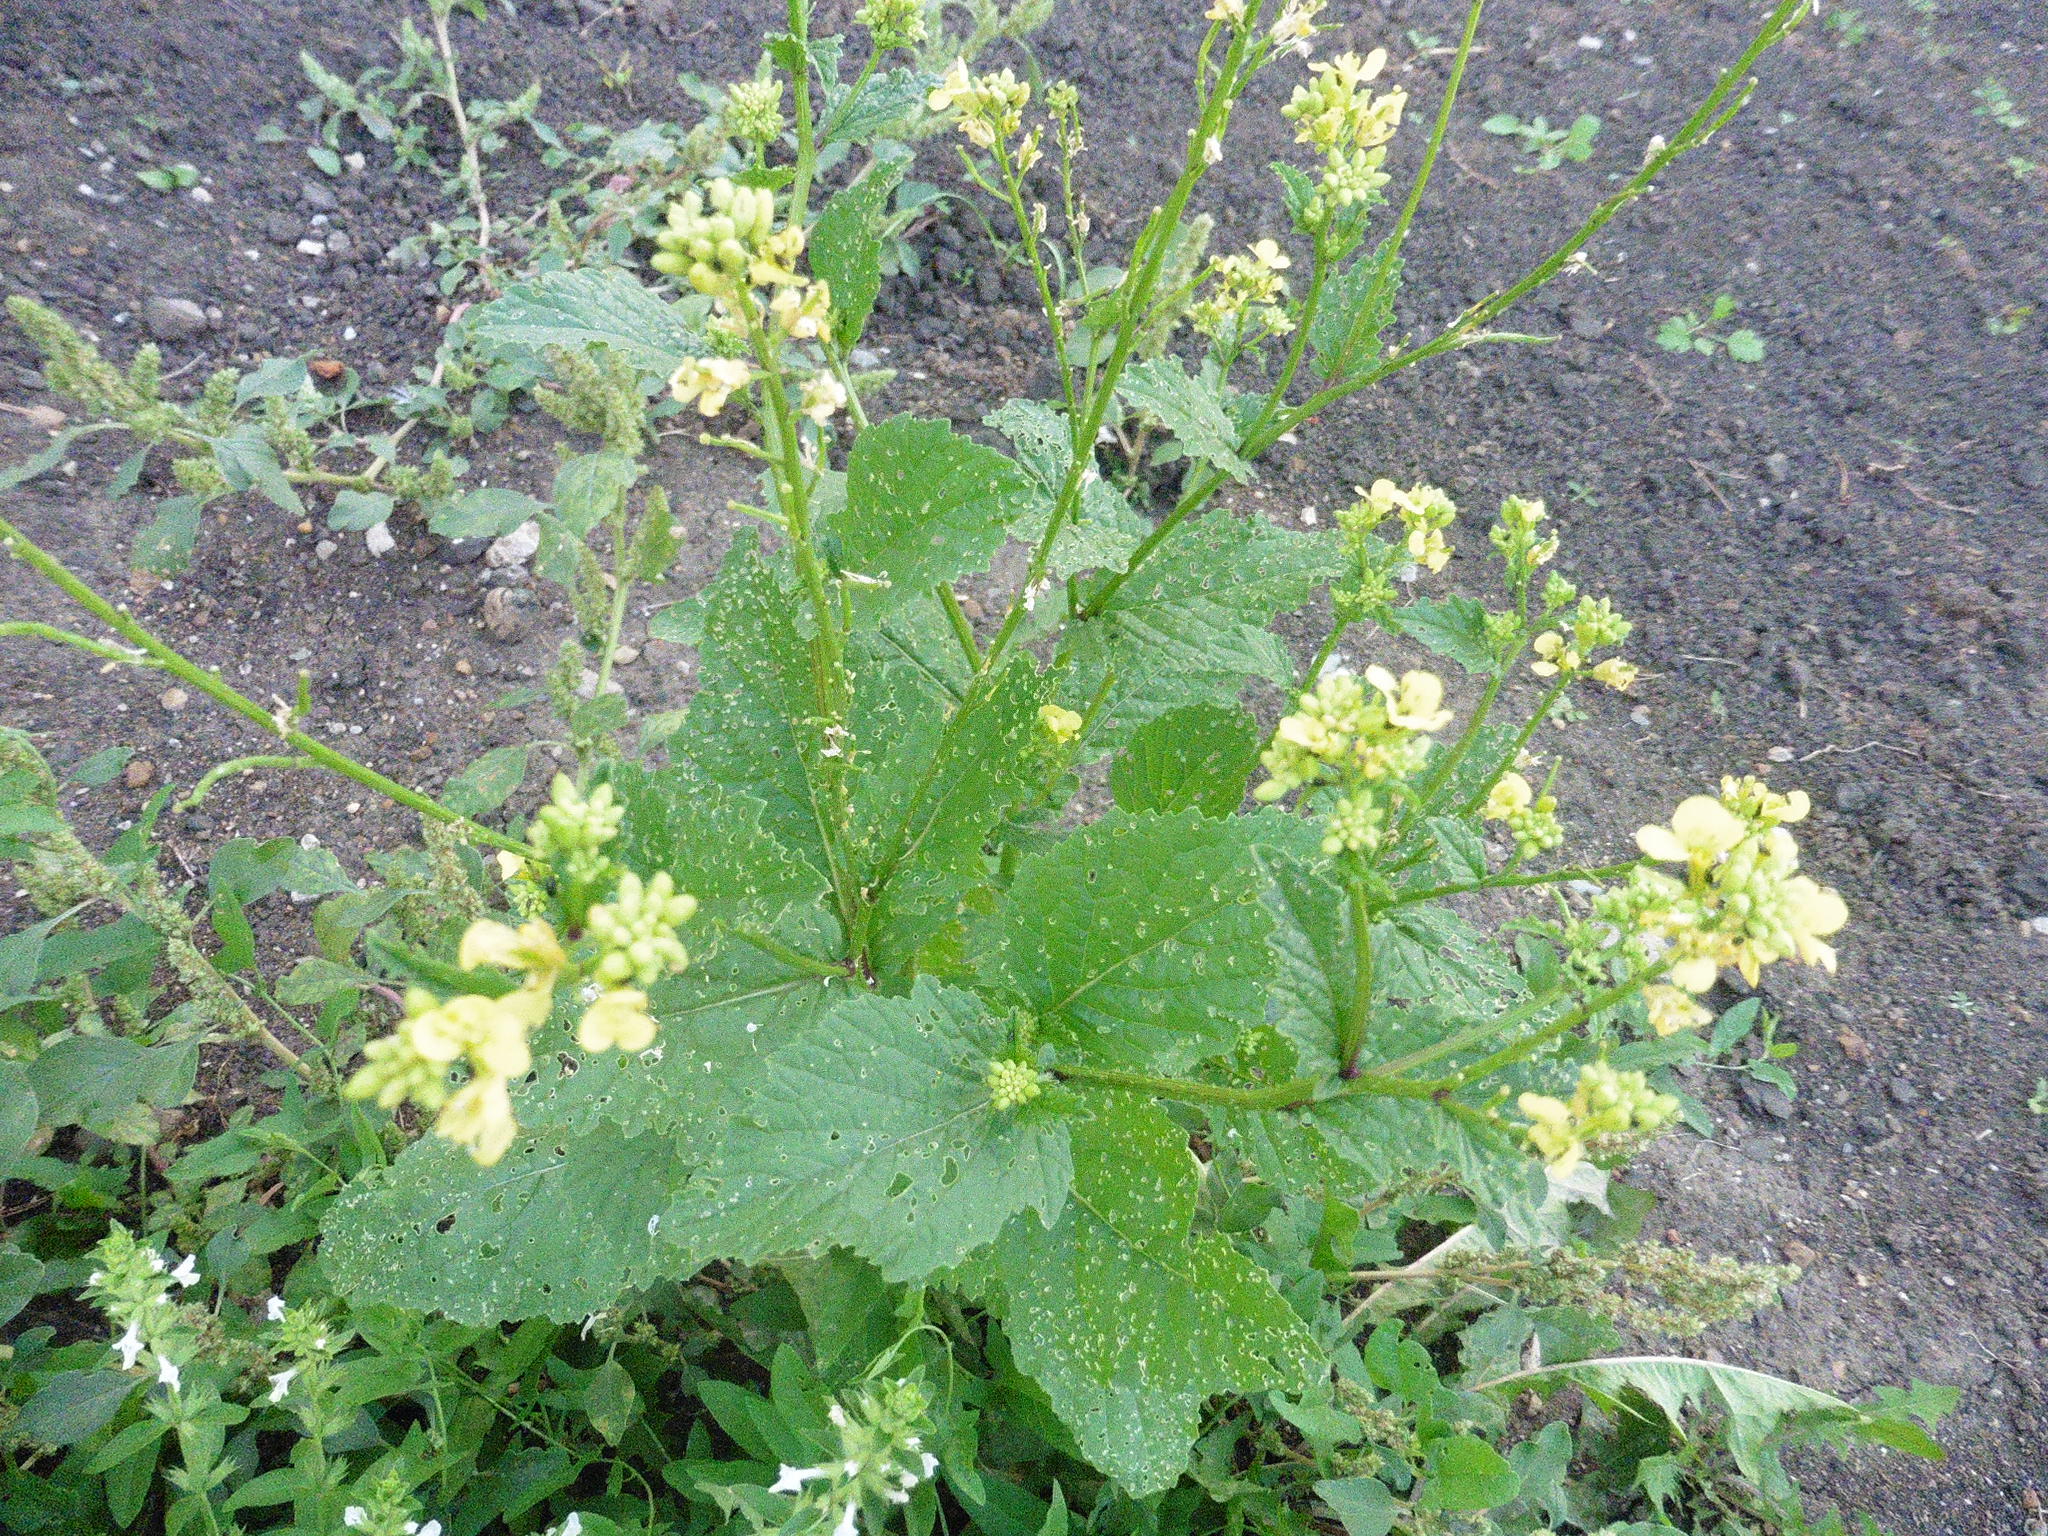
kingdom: Plantae
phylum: Tracheophyta
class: Magnoliopsida
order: Brassicales
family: Brassicaceae
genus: Sinapis
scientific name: Sinapis arvensis
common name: Charlock
